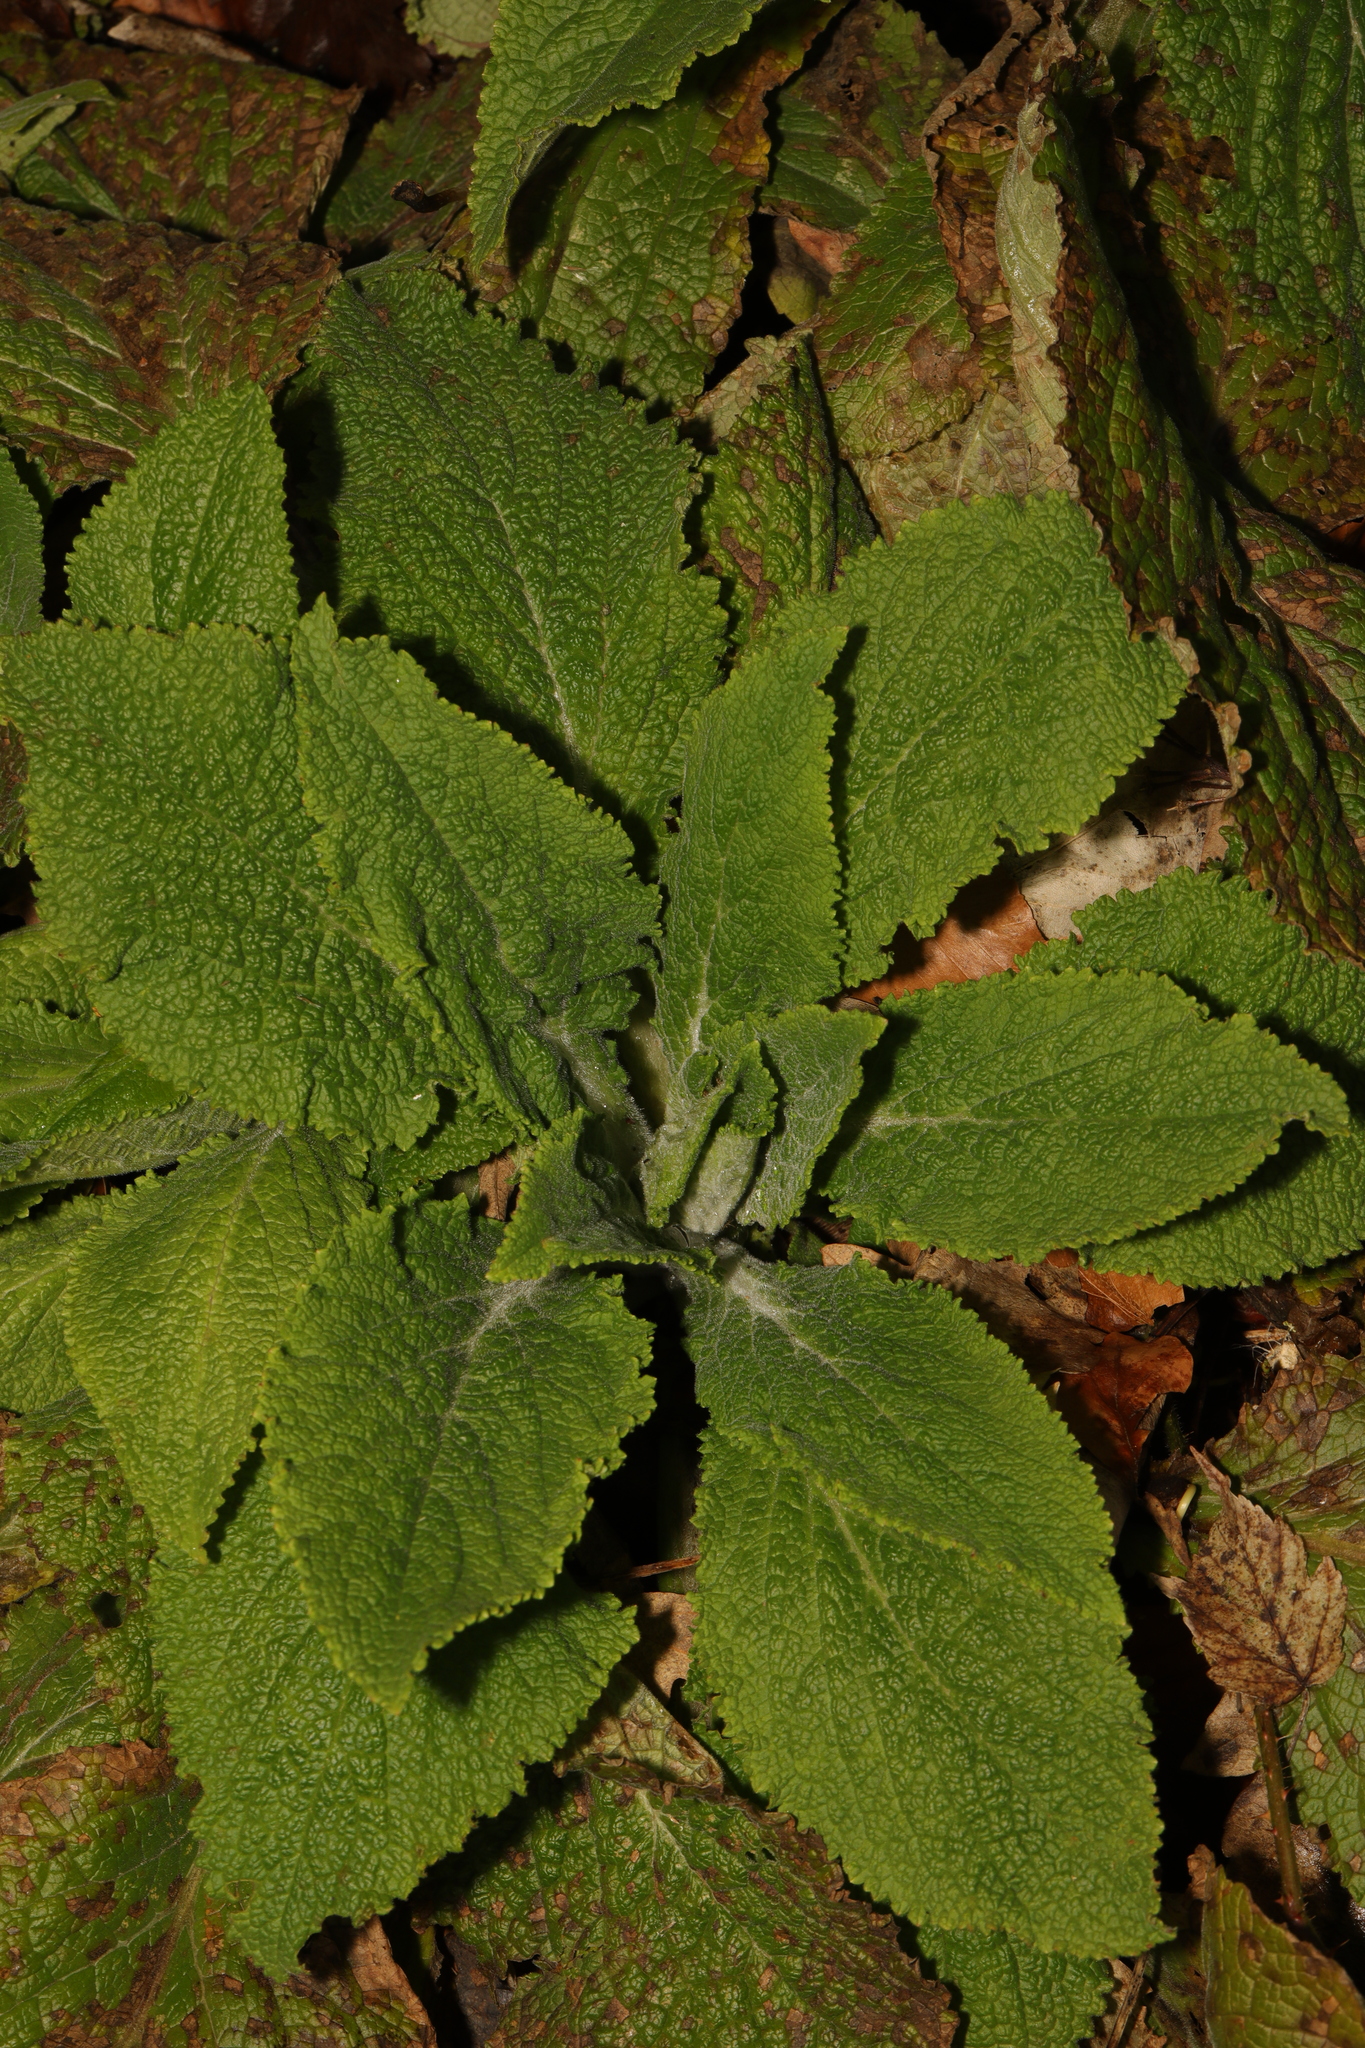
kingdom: Plantae
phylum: Tracheophyta
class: Magnoliopsida
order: Lamiales
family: Plantaginaceae
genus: Digitalis
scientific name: Digitalis purpurea
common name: Foxglove
